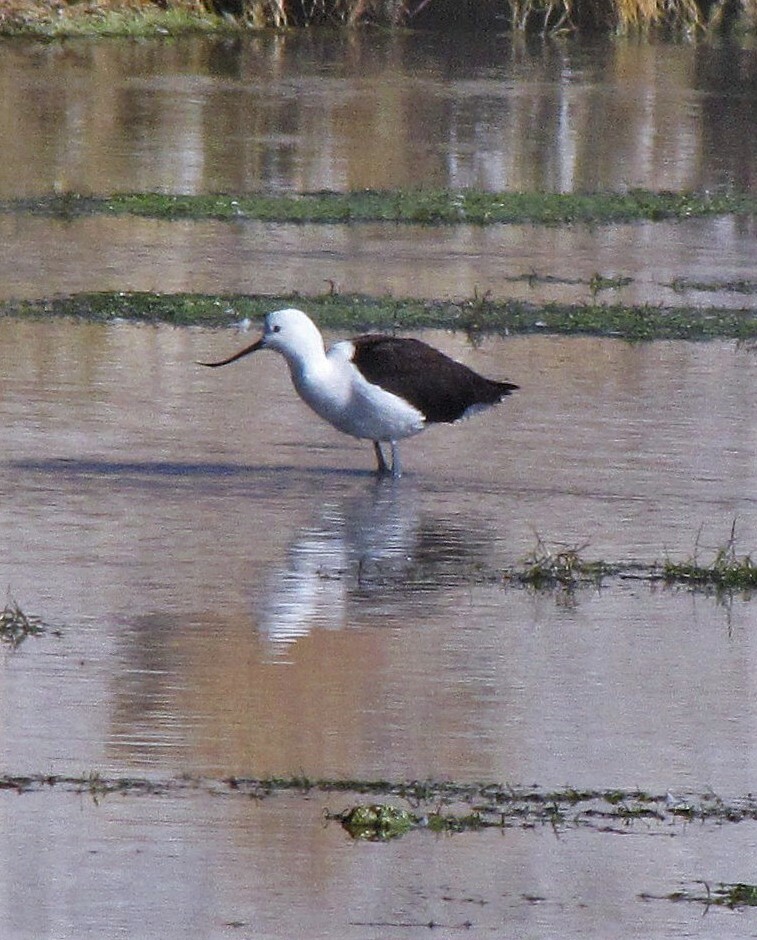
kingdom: Animalia
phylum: Chordata
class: Aves
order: Charadriiformes
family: Recurvirostridae
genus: Recurvirostra
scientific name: Recurvirostra andina
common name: Andean avocet
